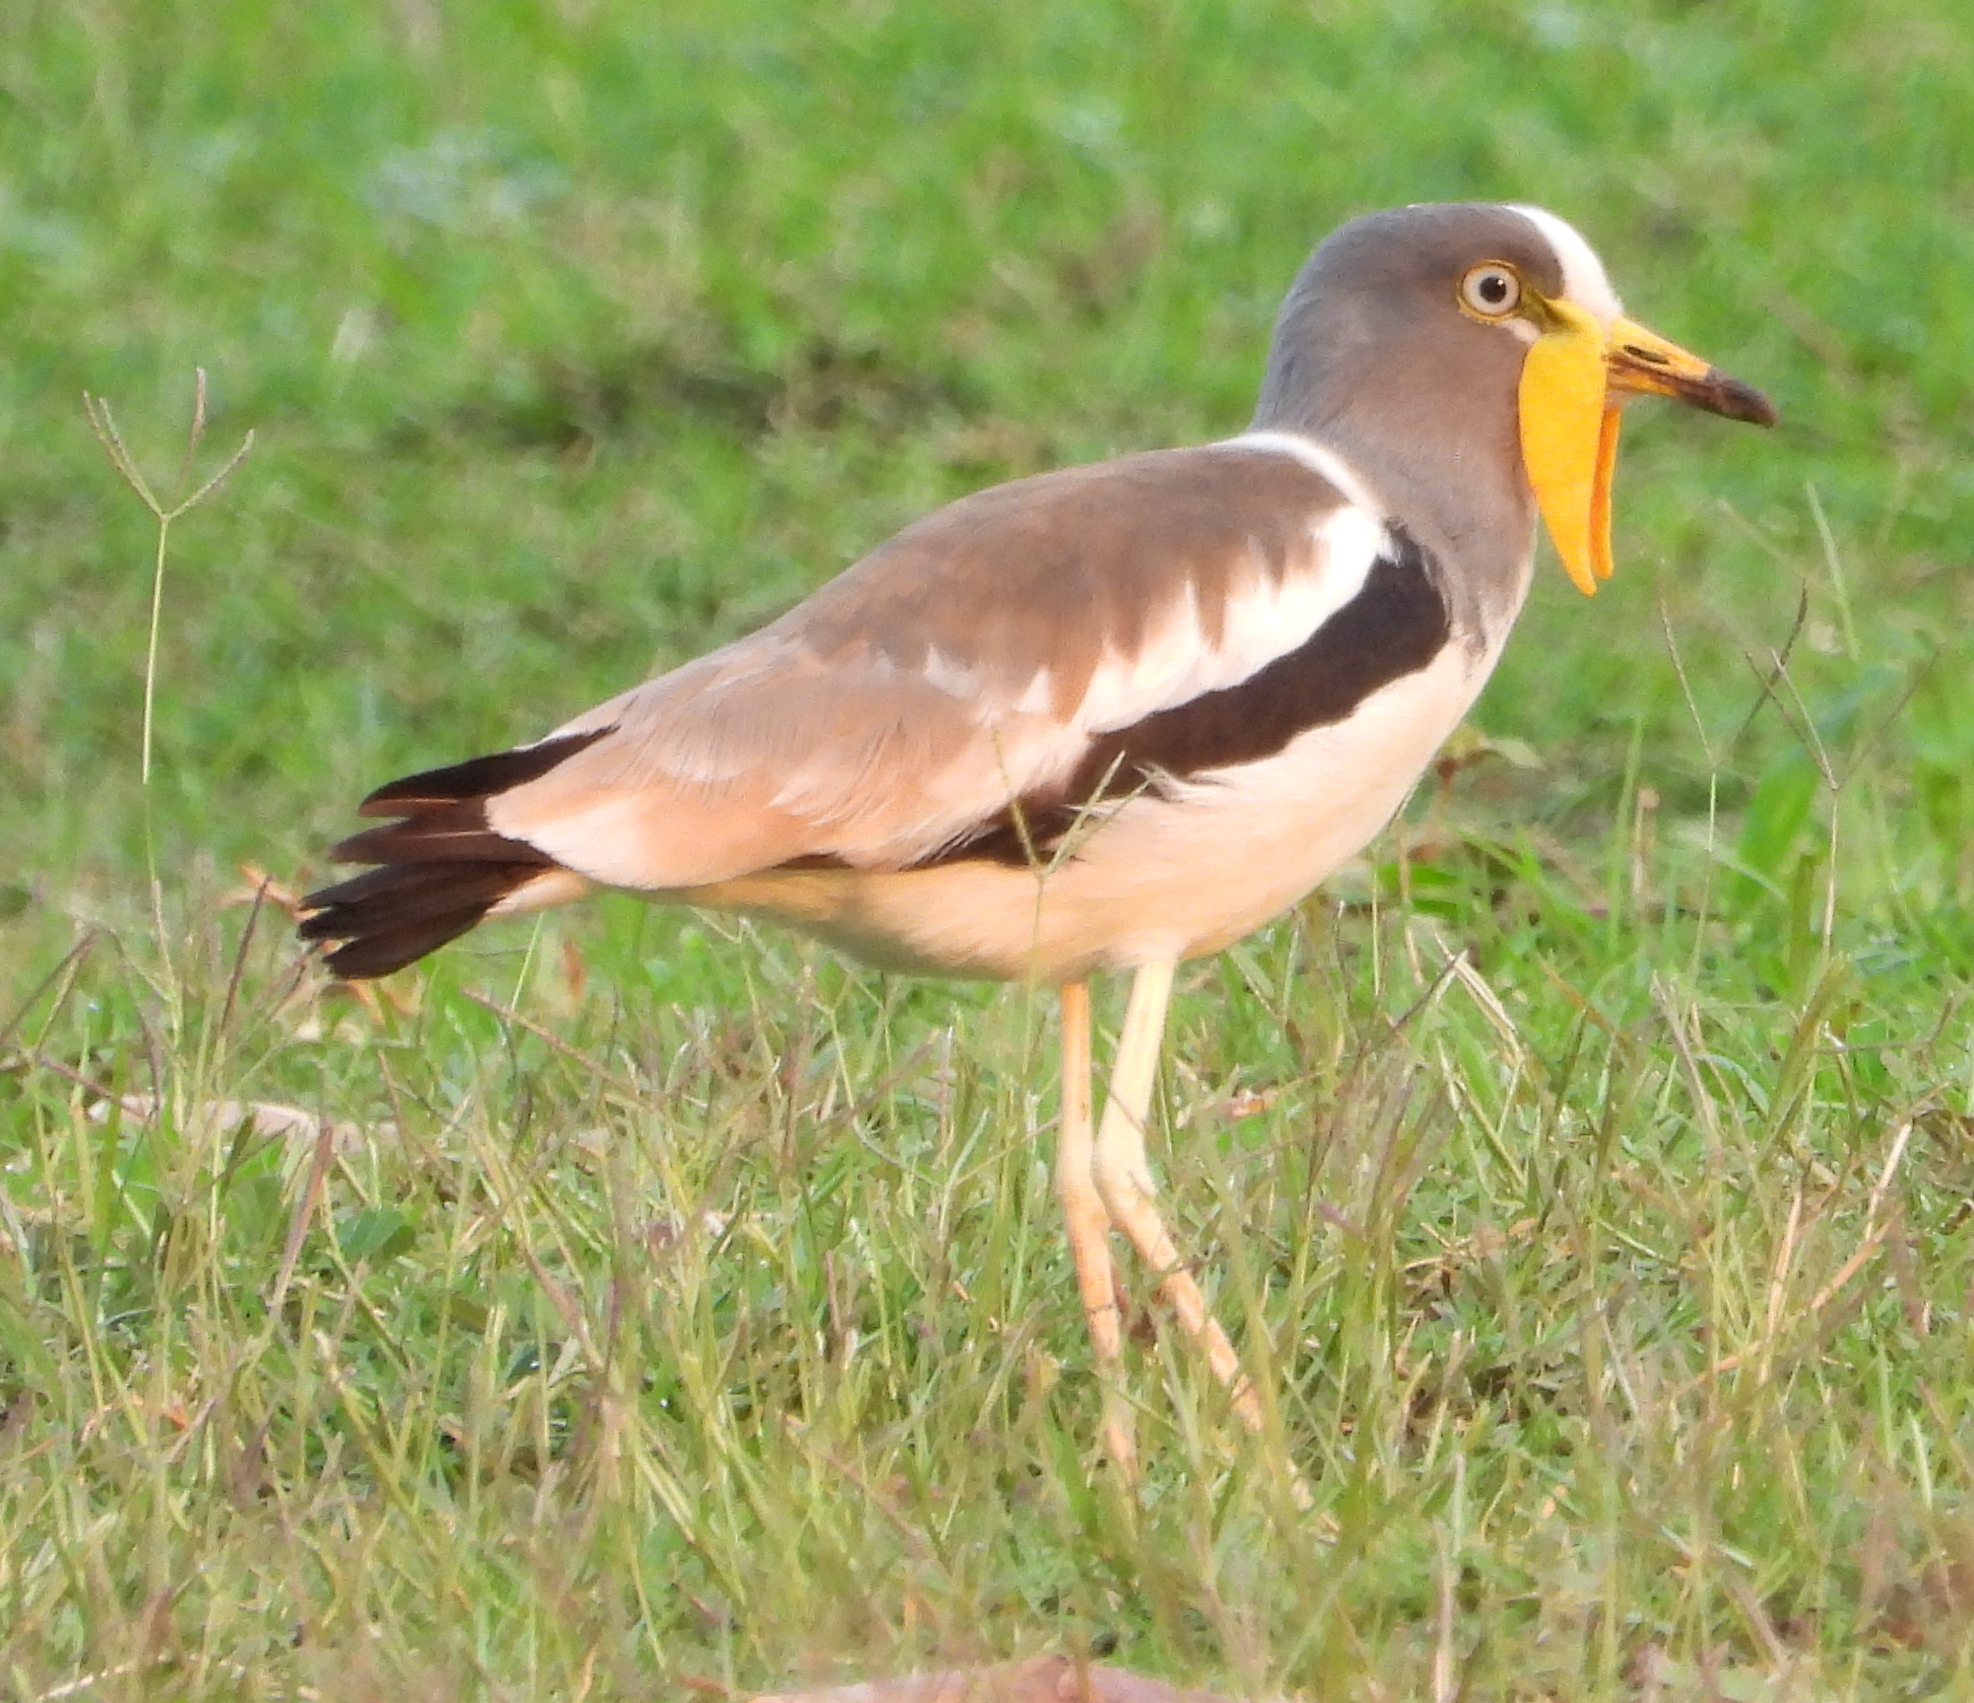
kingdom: Animalia
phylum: Chordata
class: Aves
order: Charadriiformes
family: Charadriidae
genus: Vanellus
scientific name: Vanellus albiceps
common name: White-crowned lapwing
